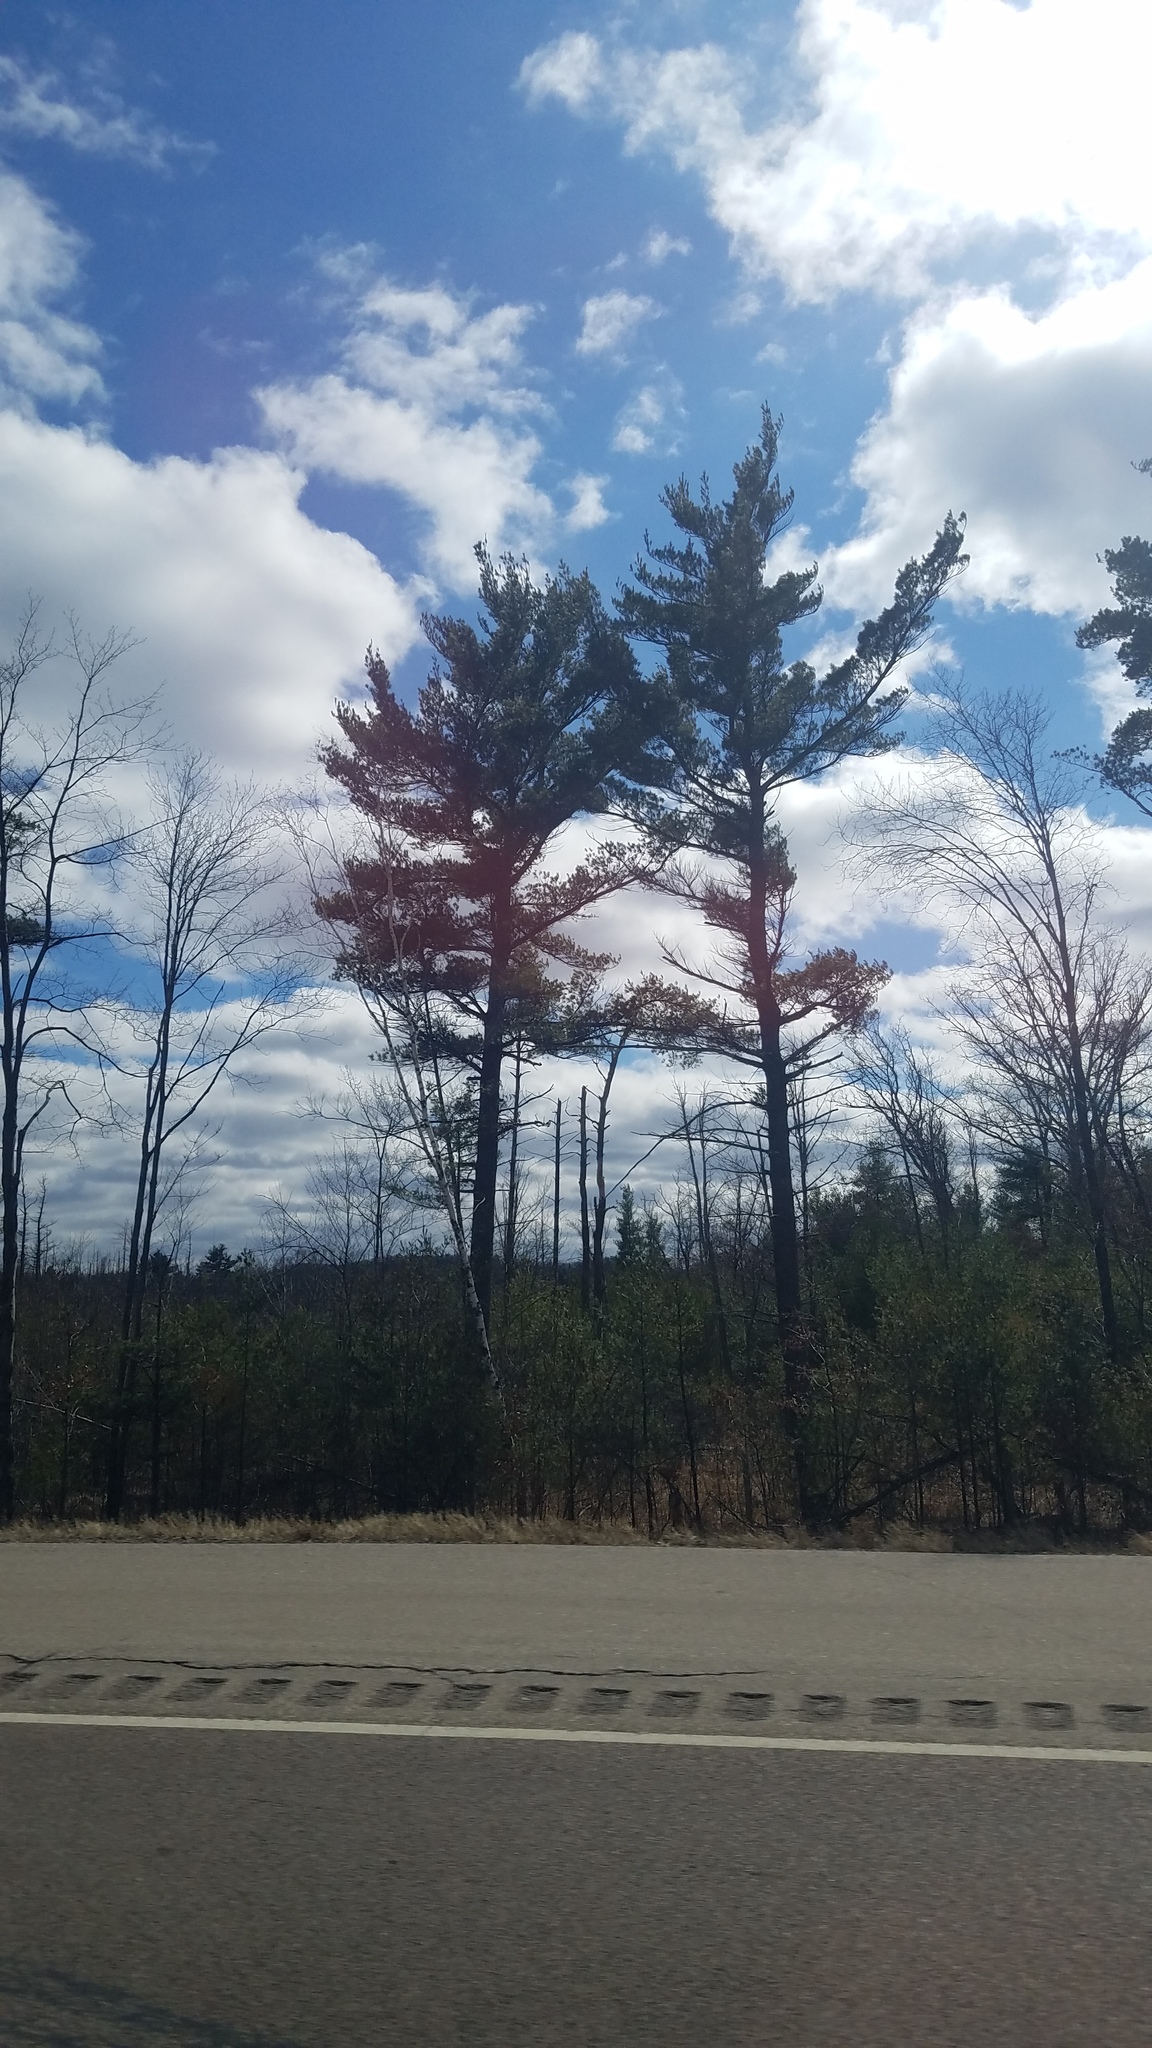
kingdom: Plantae
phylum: Tracheophyta
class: Pinopsida
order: Pinales
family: Pinaceae
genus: Pinus
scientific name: Pinus strobus
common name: Weymouth pine
